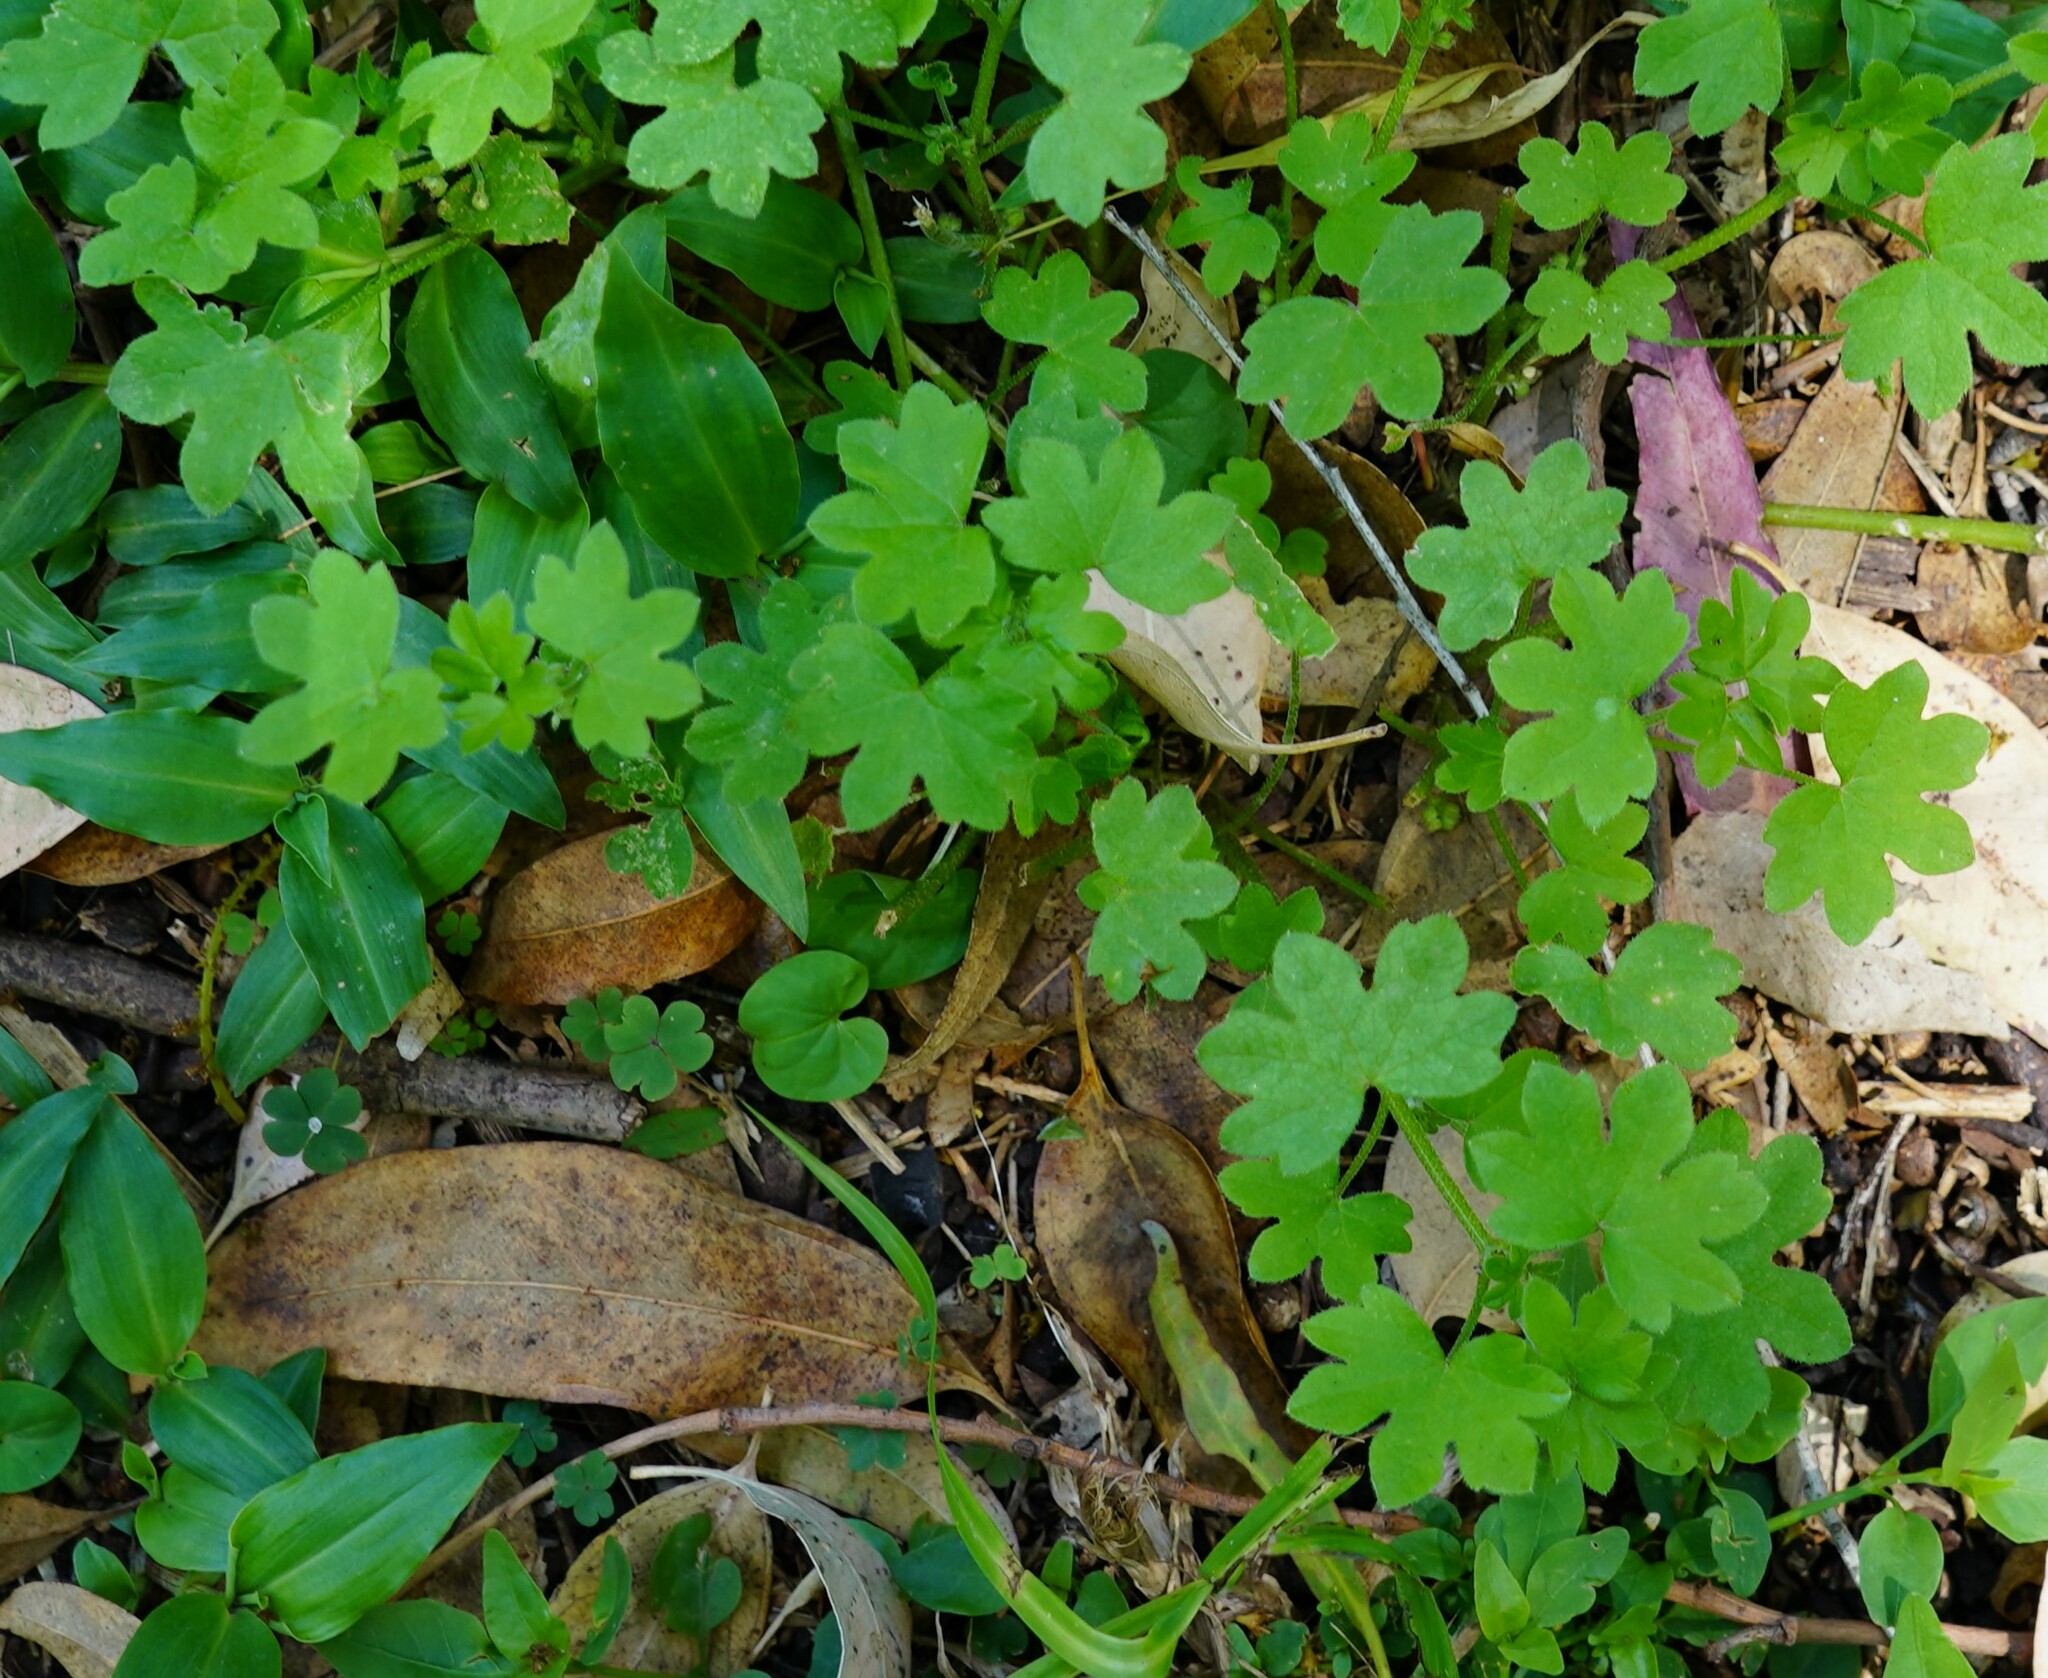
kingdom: Plantae
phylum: Tracheophyta
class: Magnoliopsida
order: Apiales
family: Apiaceae
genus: Bowlesia
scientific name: Bowlesia incana
